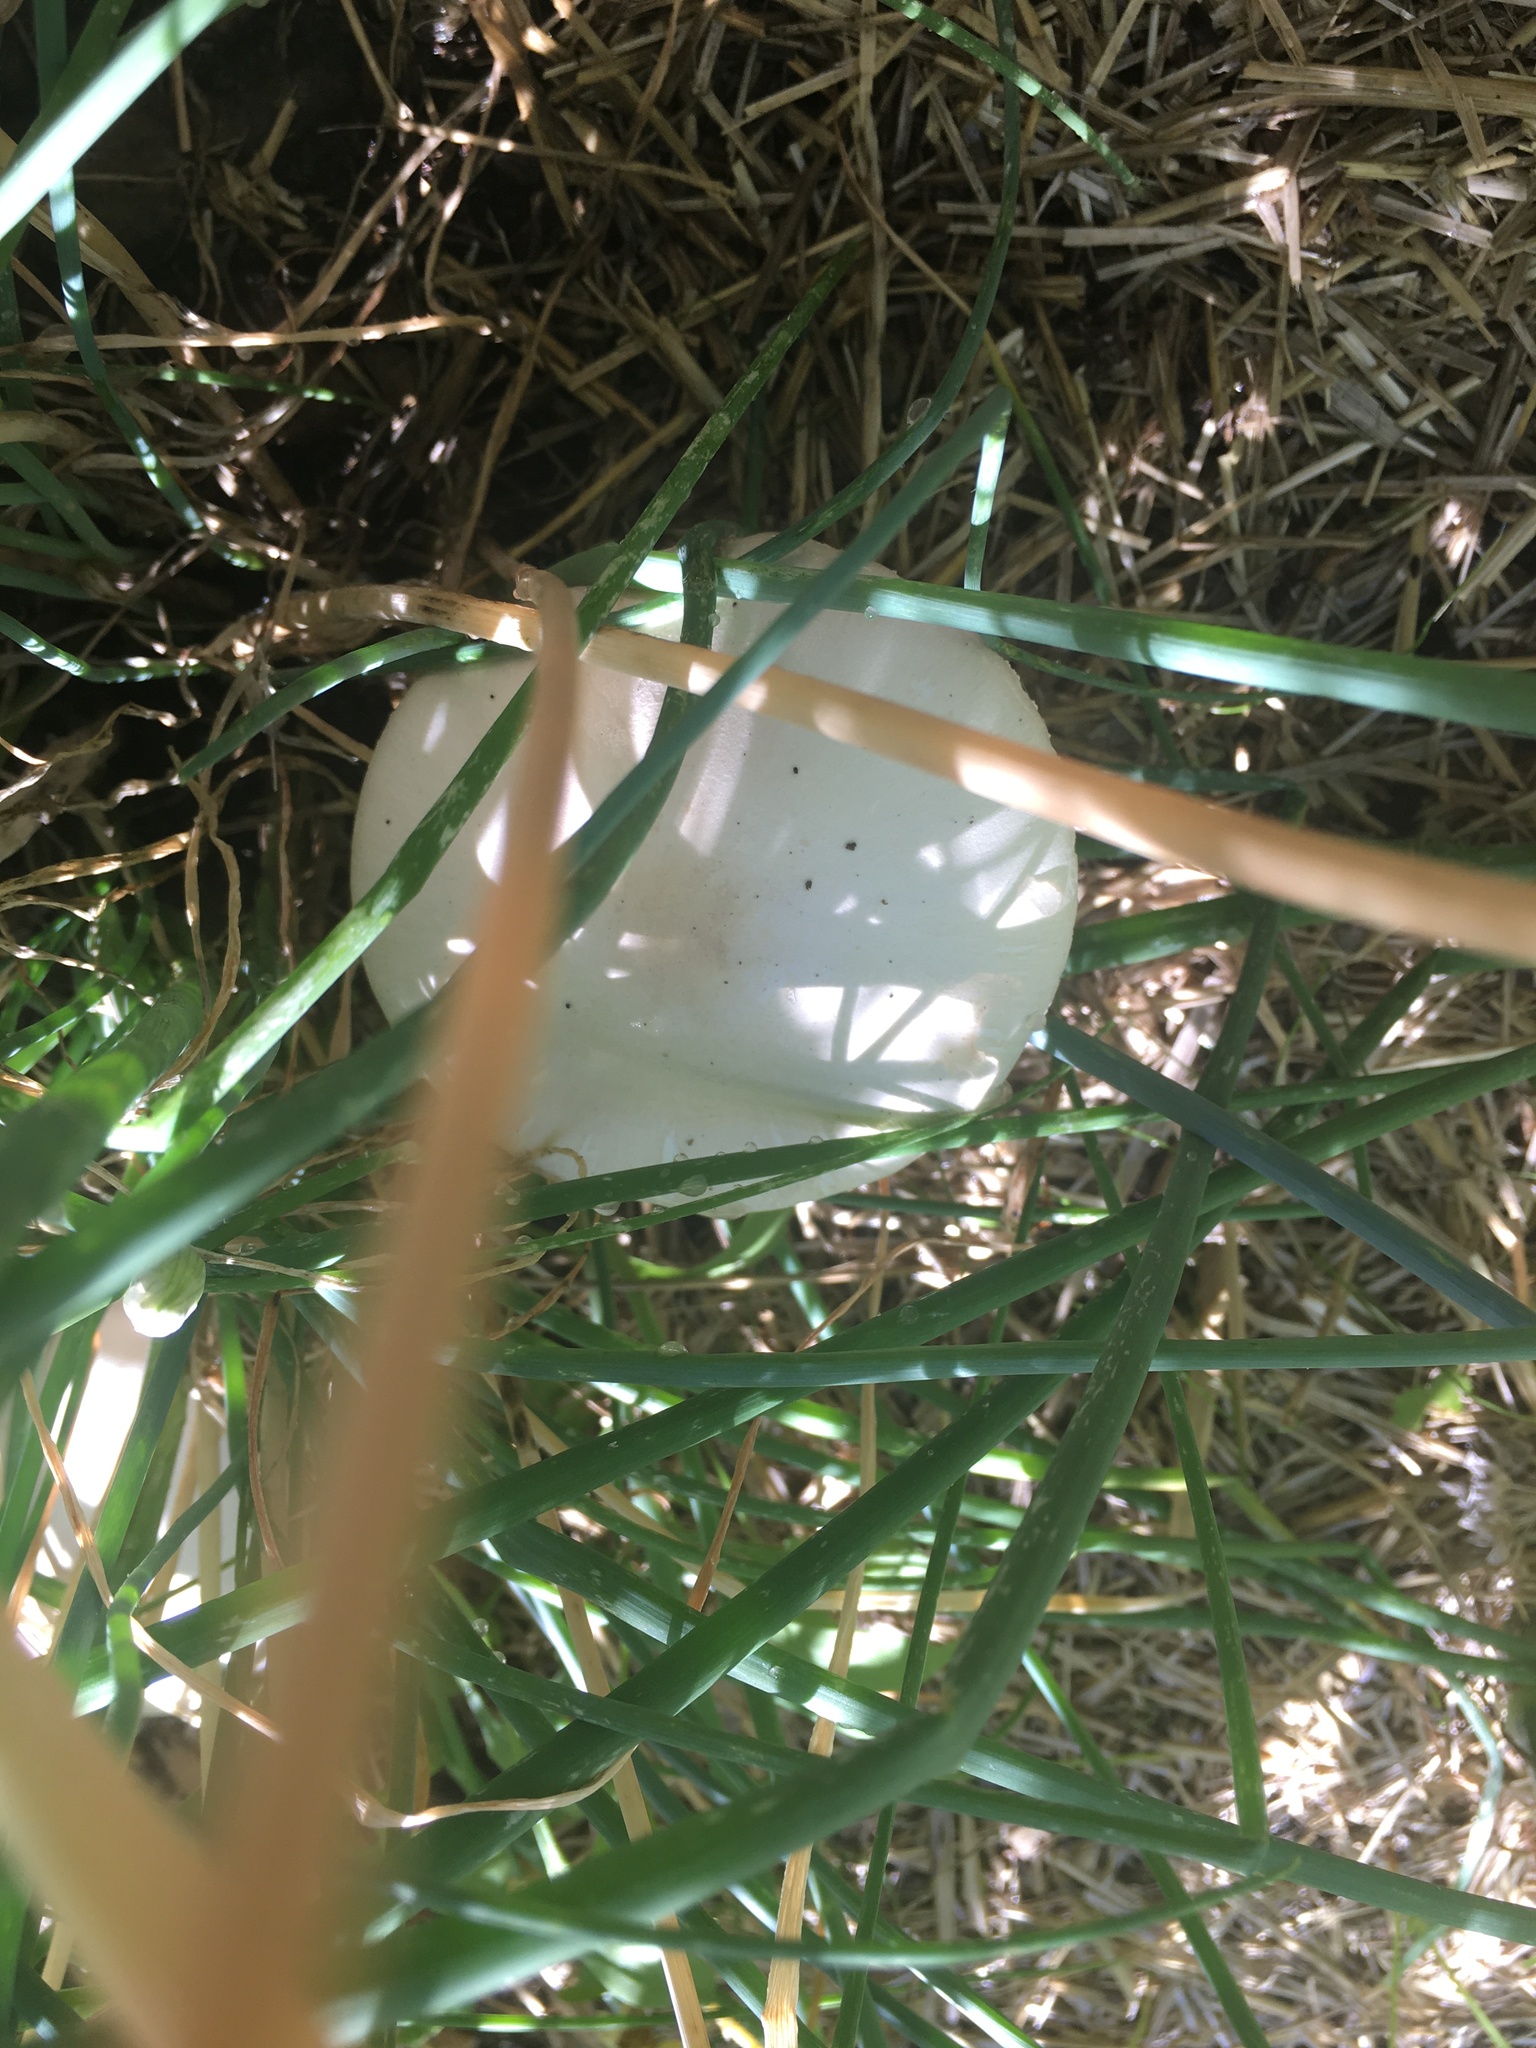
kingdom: Fungi
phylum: Basidiomycota
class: Agaricomycetes
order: Agaricales
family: Agaricaceae
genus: Leucoagaricus
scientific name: Leucoagaricus leucothites
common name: White dapperling
